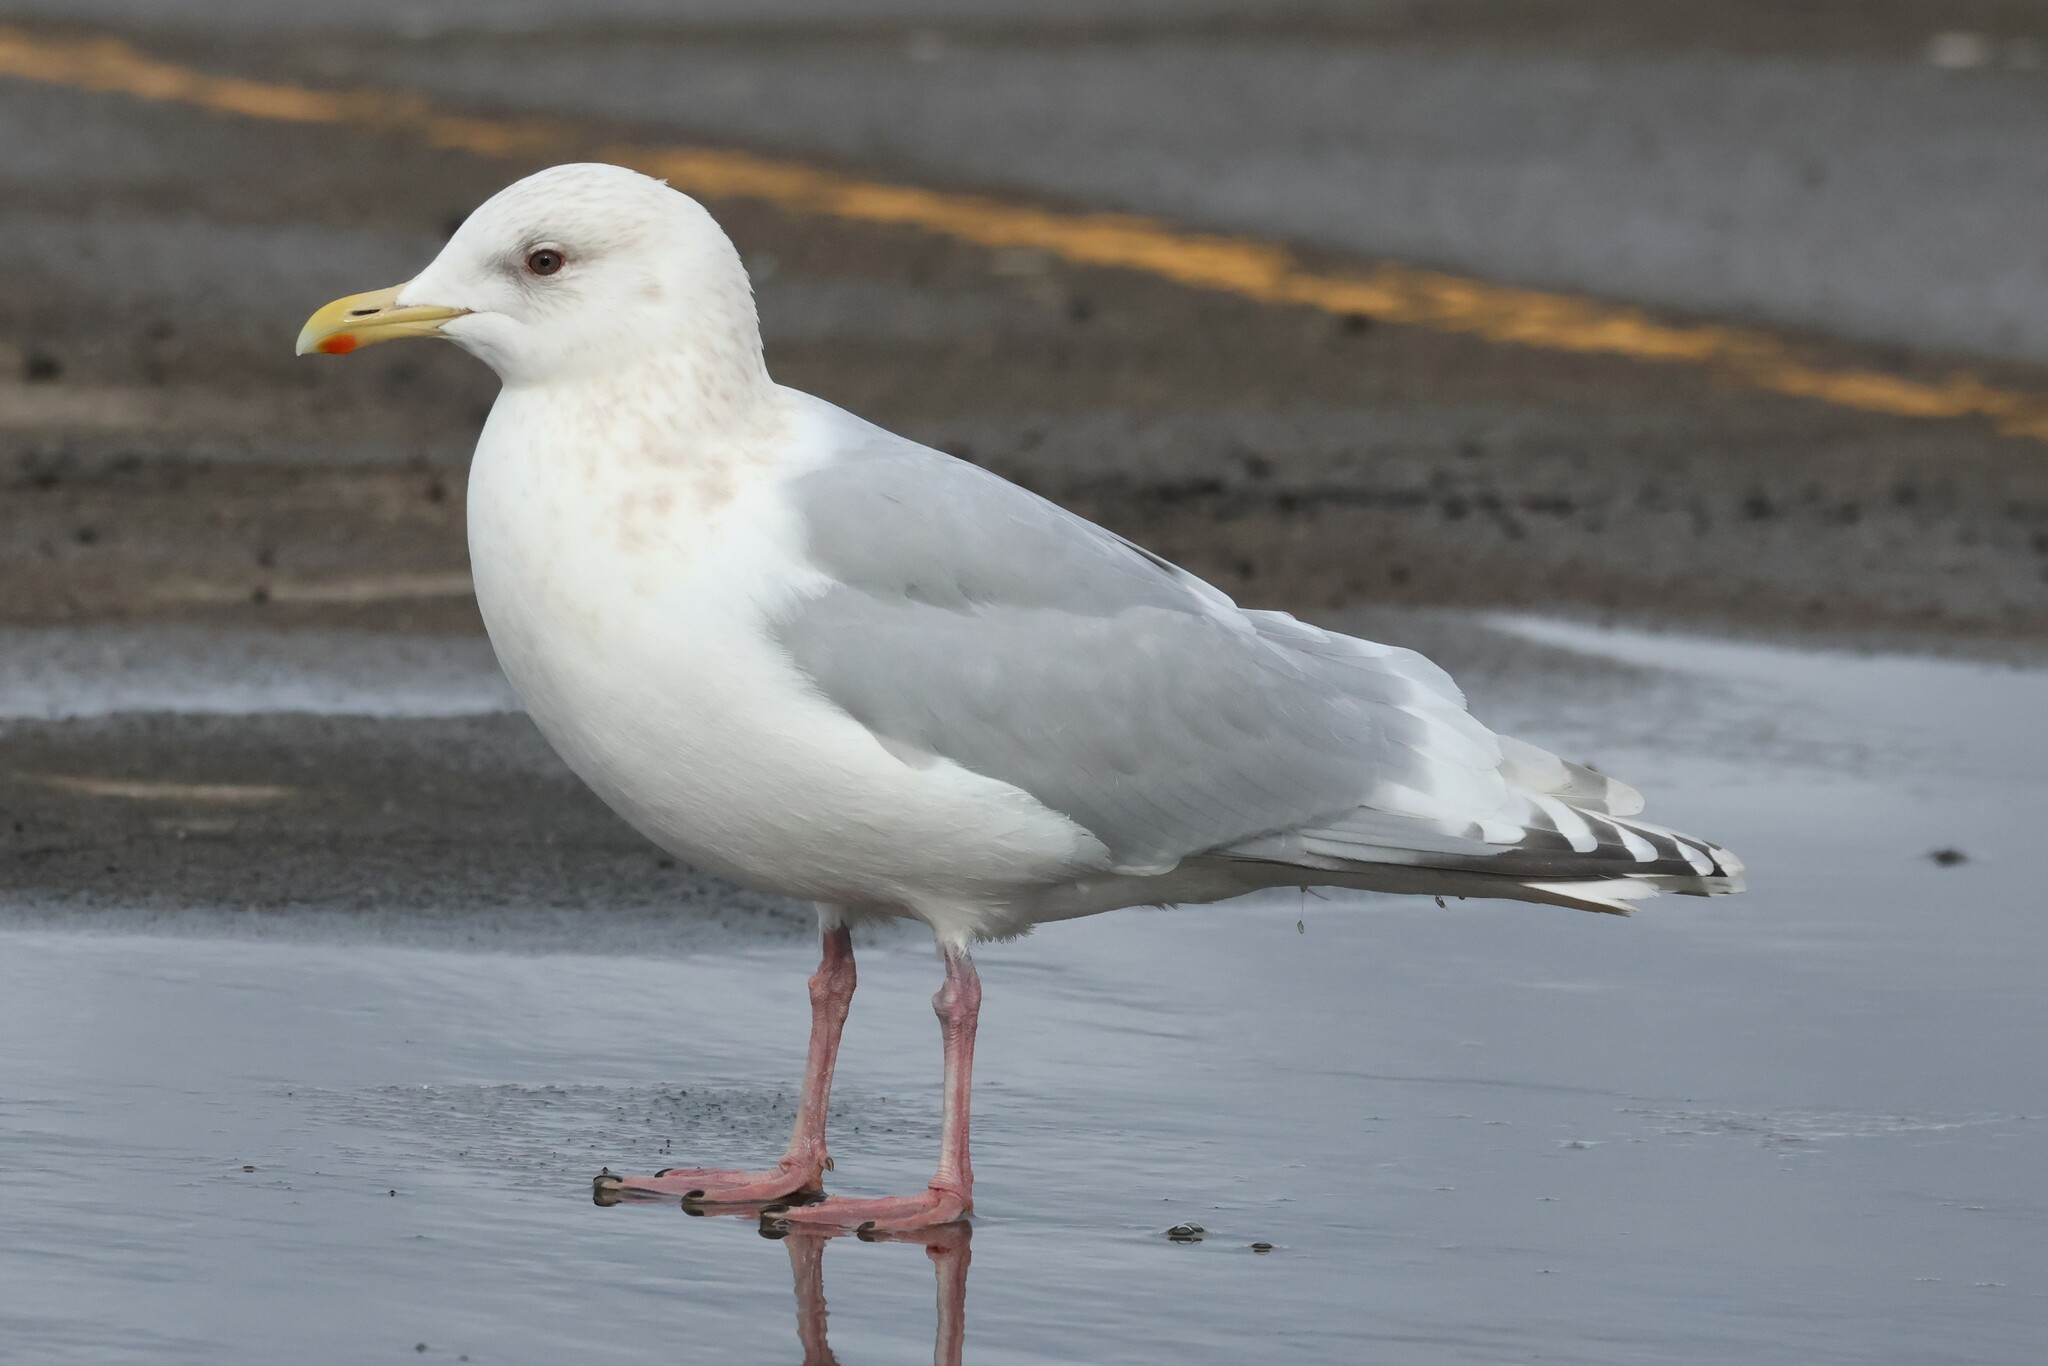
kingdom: Animalia
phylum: Chordata
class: Aves
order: Charadriiformes
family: Laridae
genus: Larus
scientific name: Larus glaucoides
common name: Iceland gull
